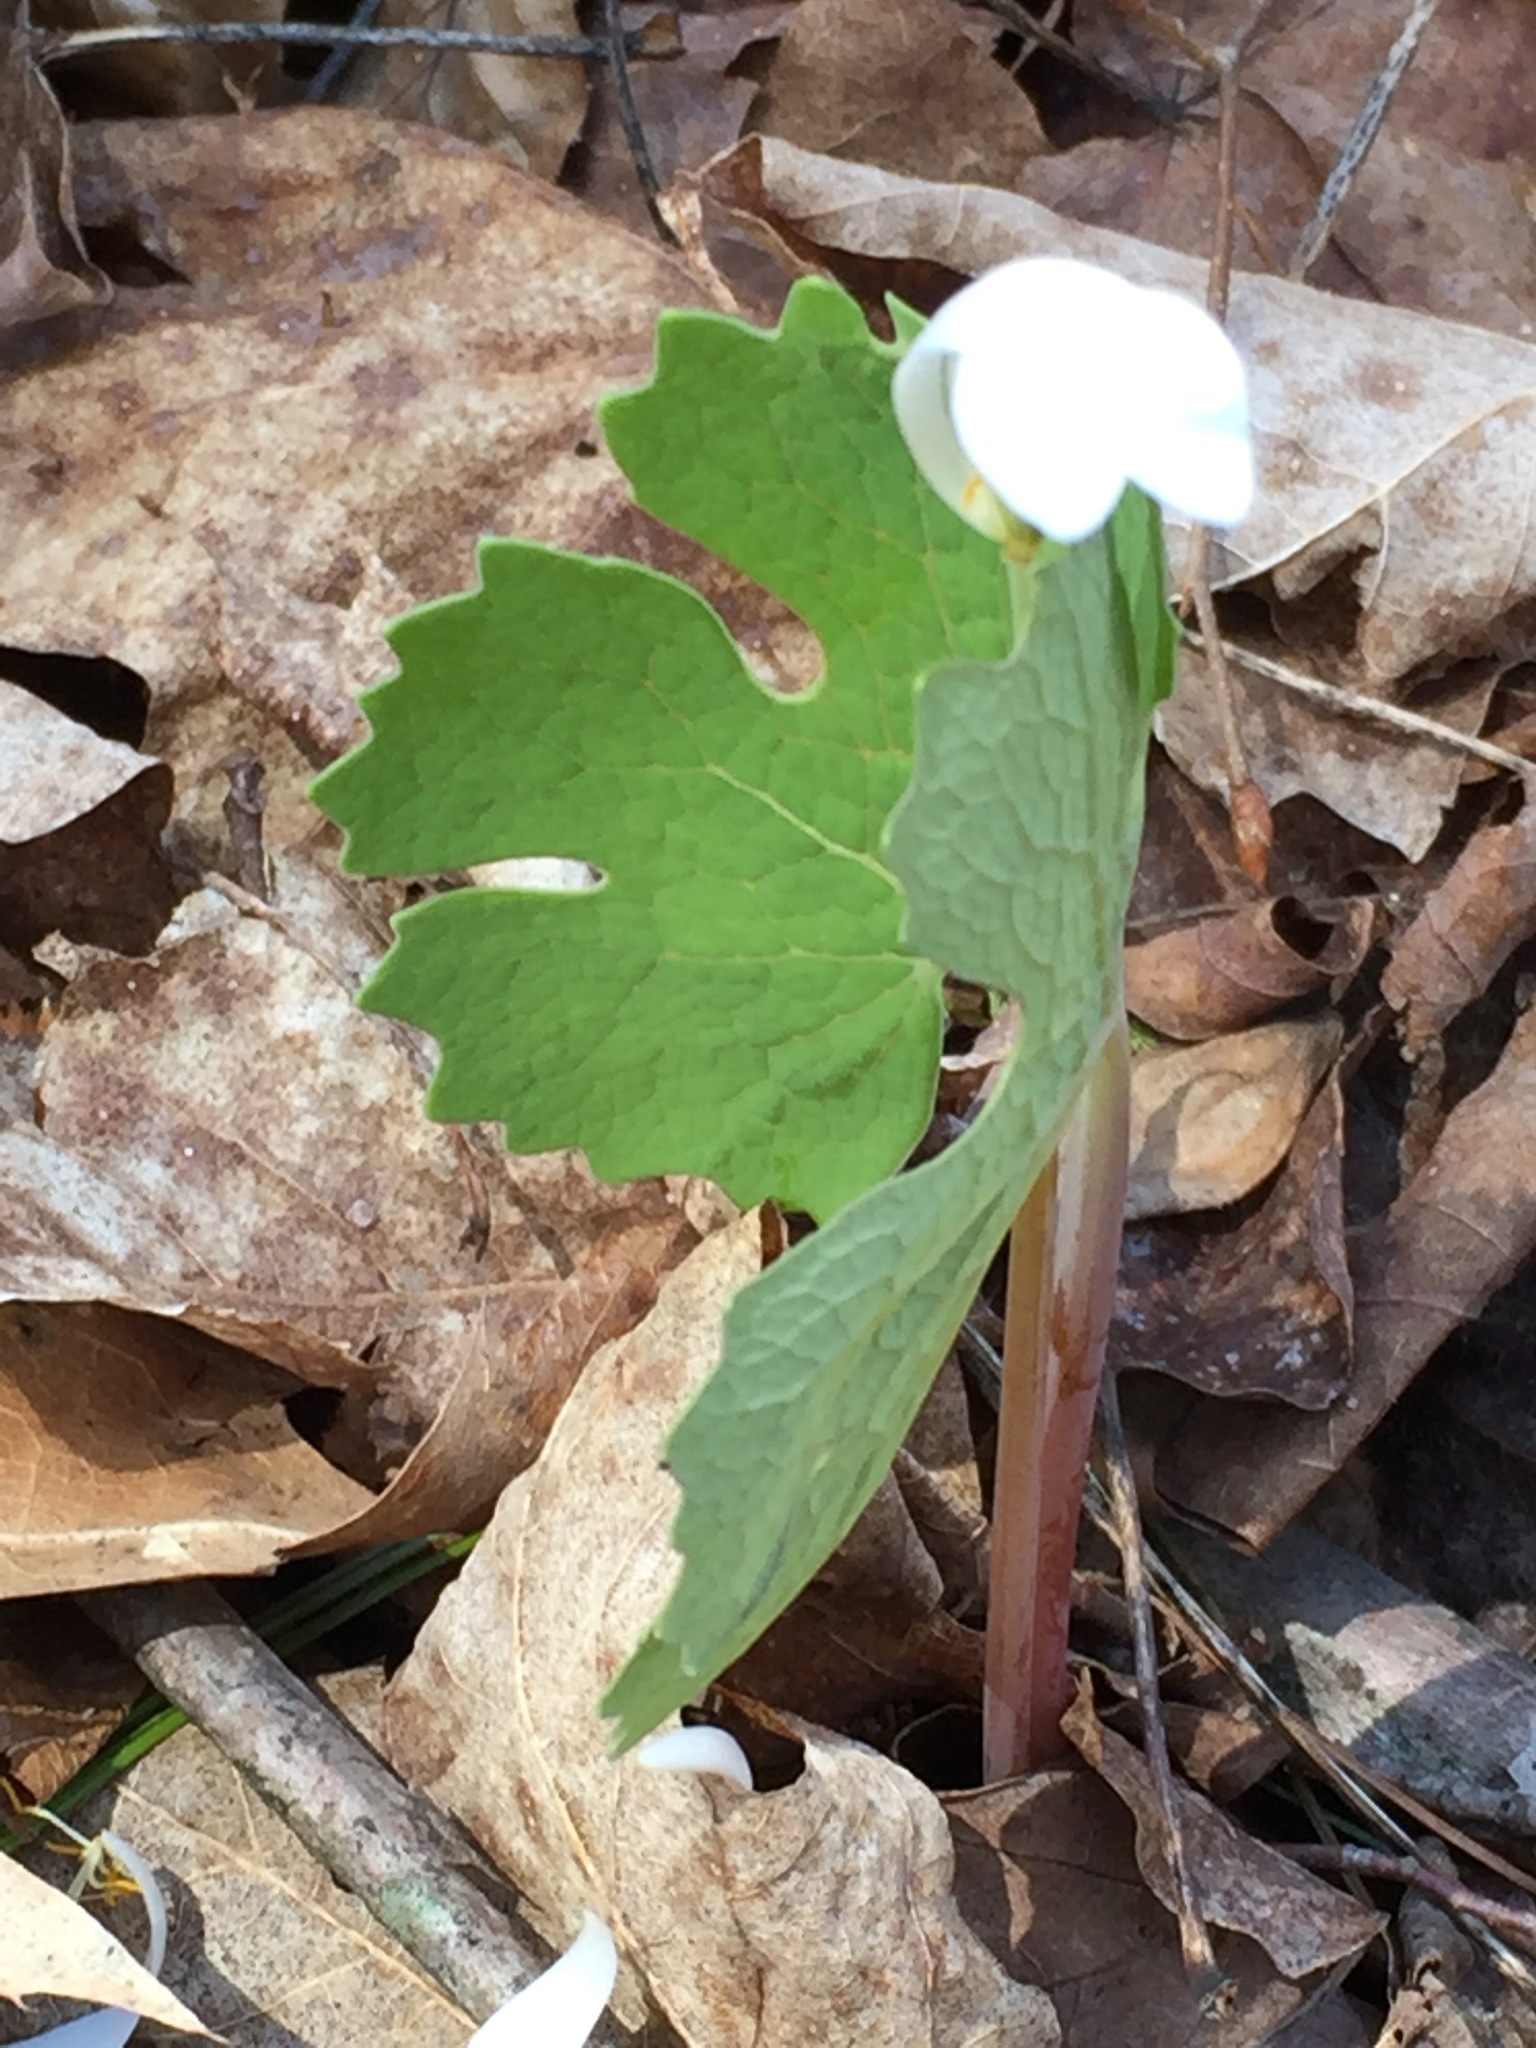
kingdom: Plantae
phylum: Tracheophyta
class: Magnoliopsida
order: Ranunculales
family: Papaveraceae
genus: Sanguinaria
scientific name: Sanguinaria canadensis
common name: Bloodroot
